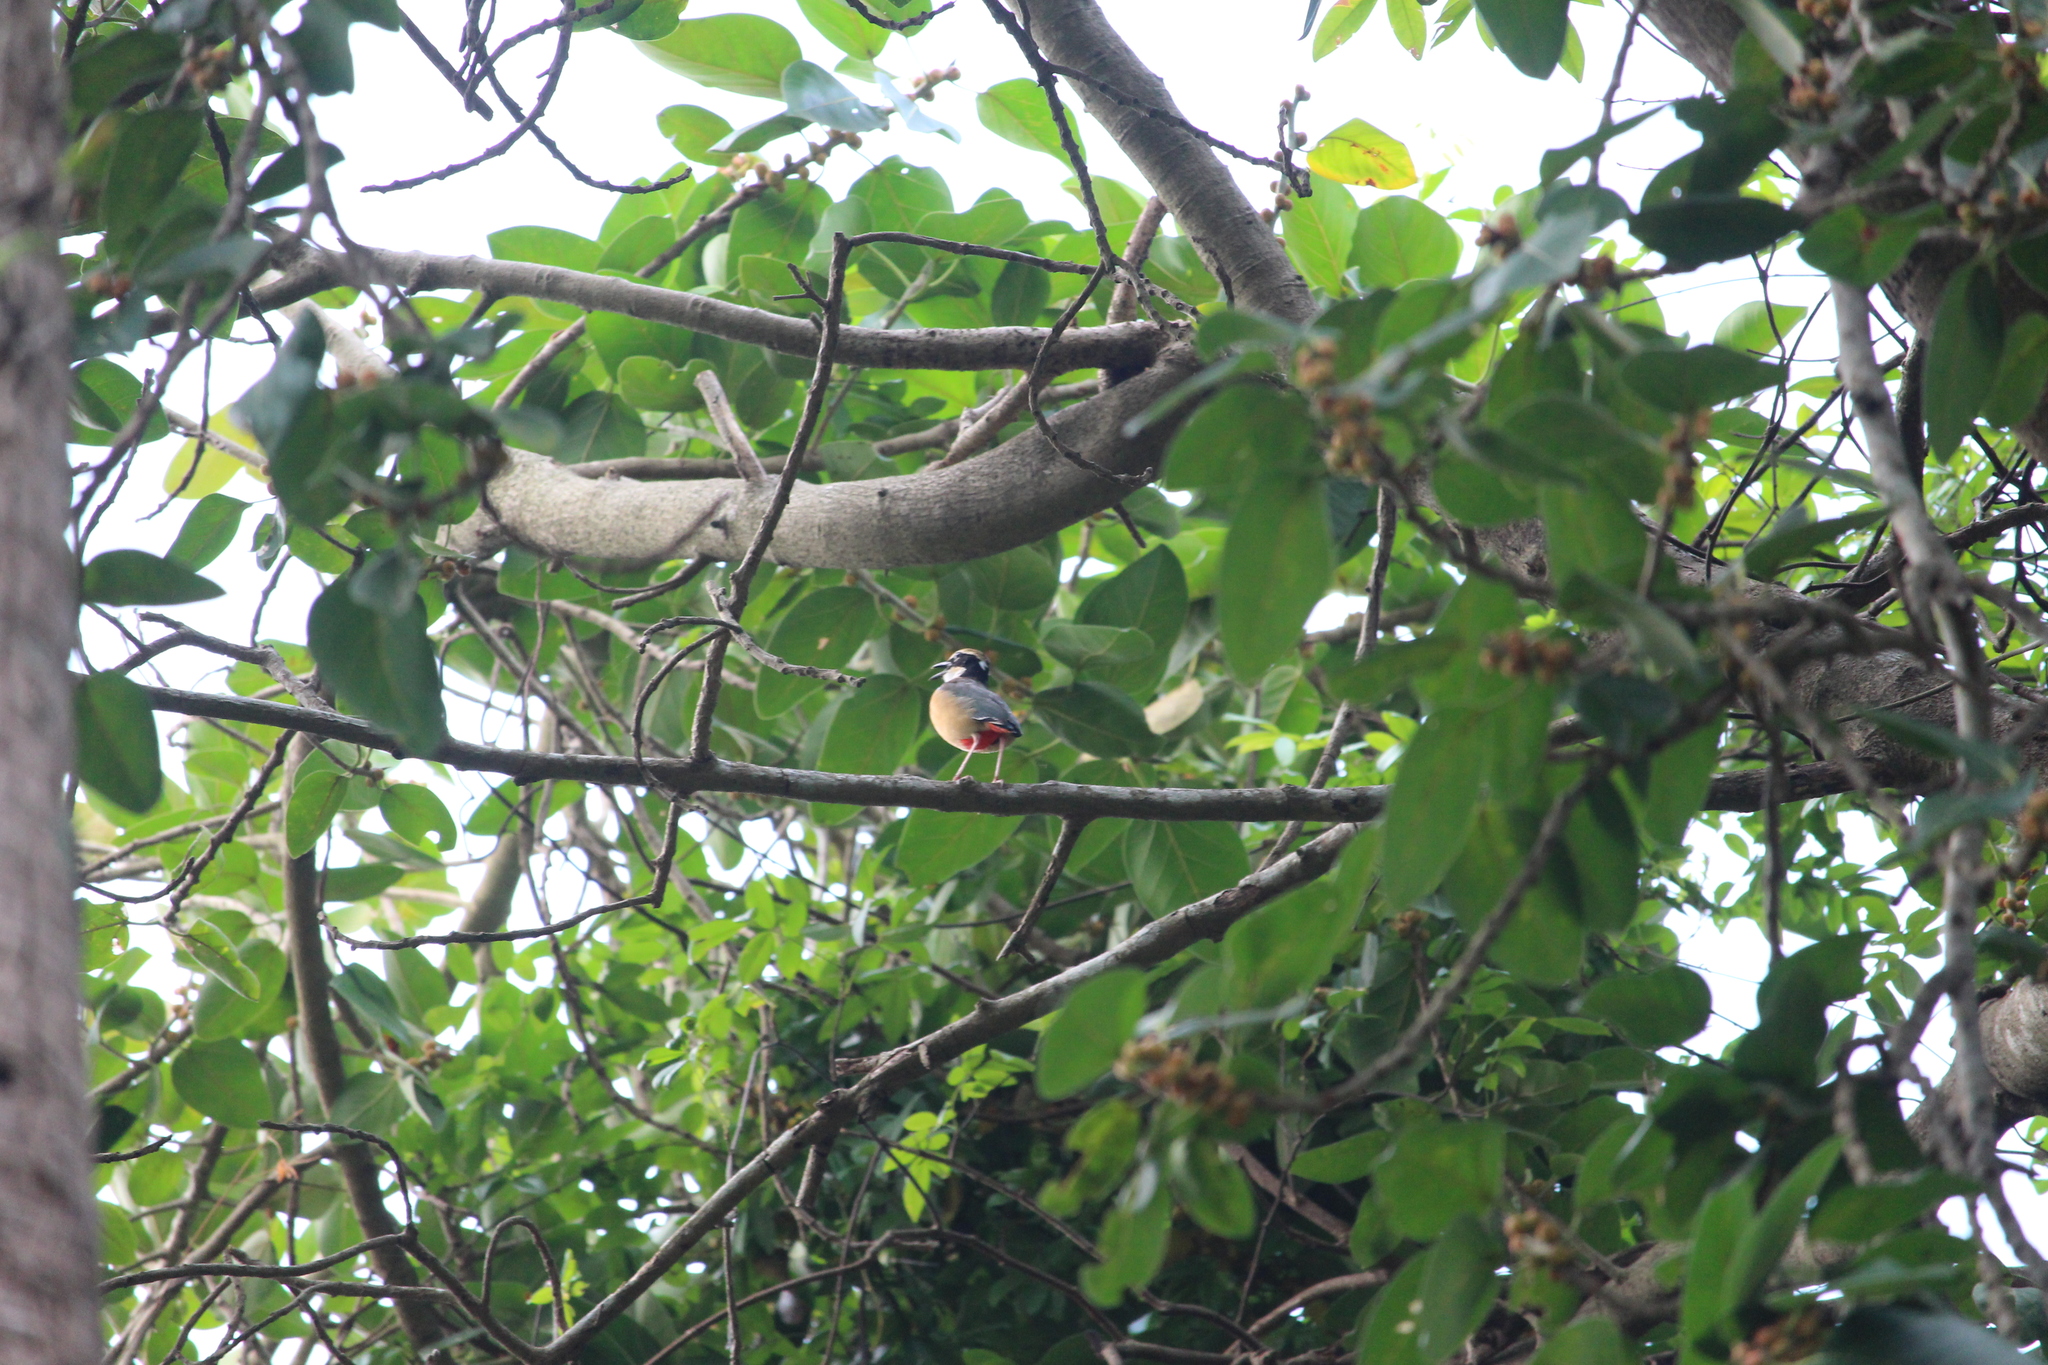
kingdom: Animalia
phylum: Chordata
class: Aves
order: Passeriformes
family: Pittidae
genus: Pitta
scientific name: Pitta brachyura
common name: Indian pitta
